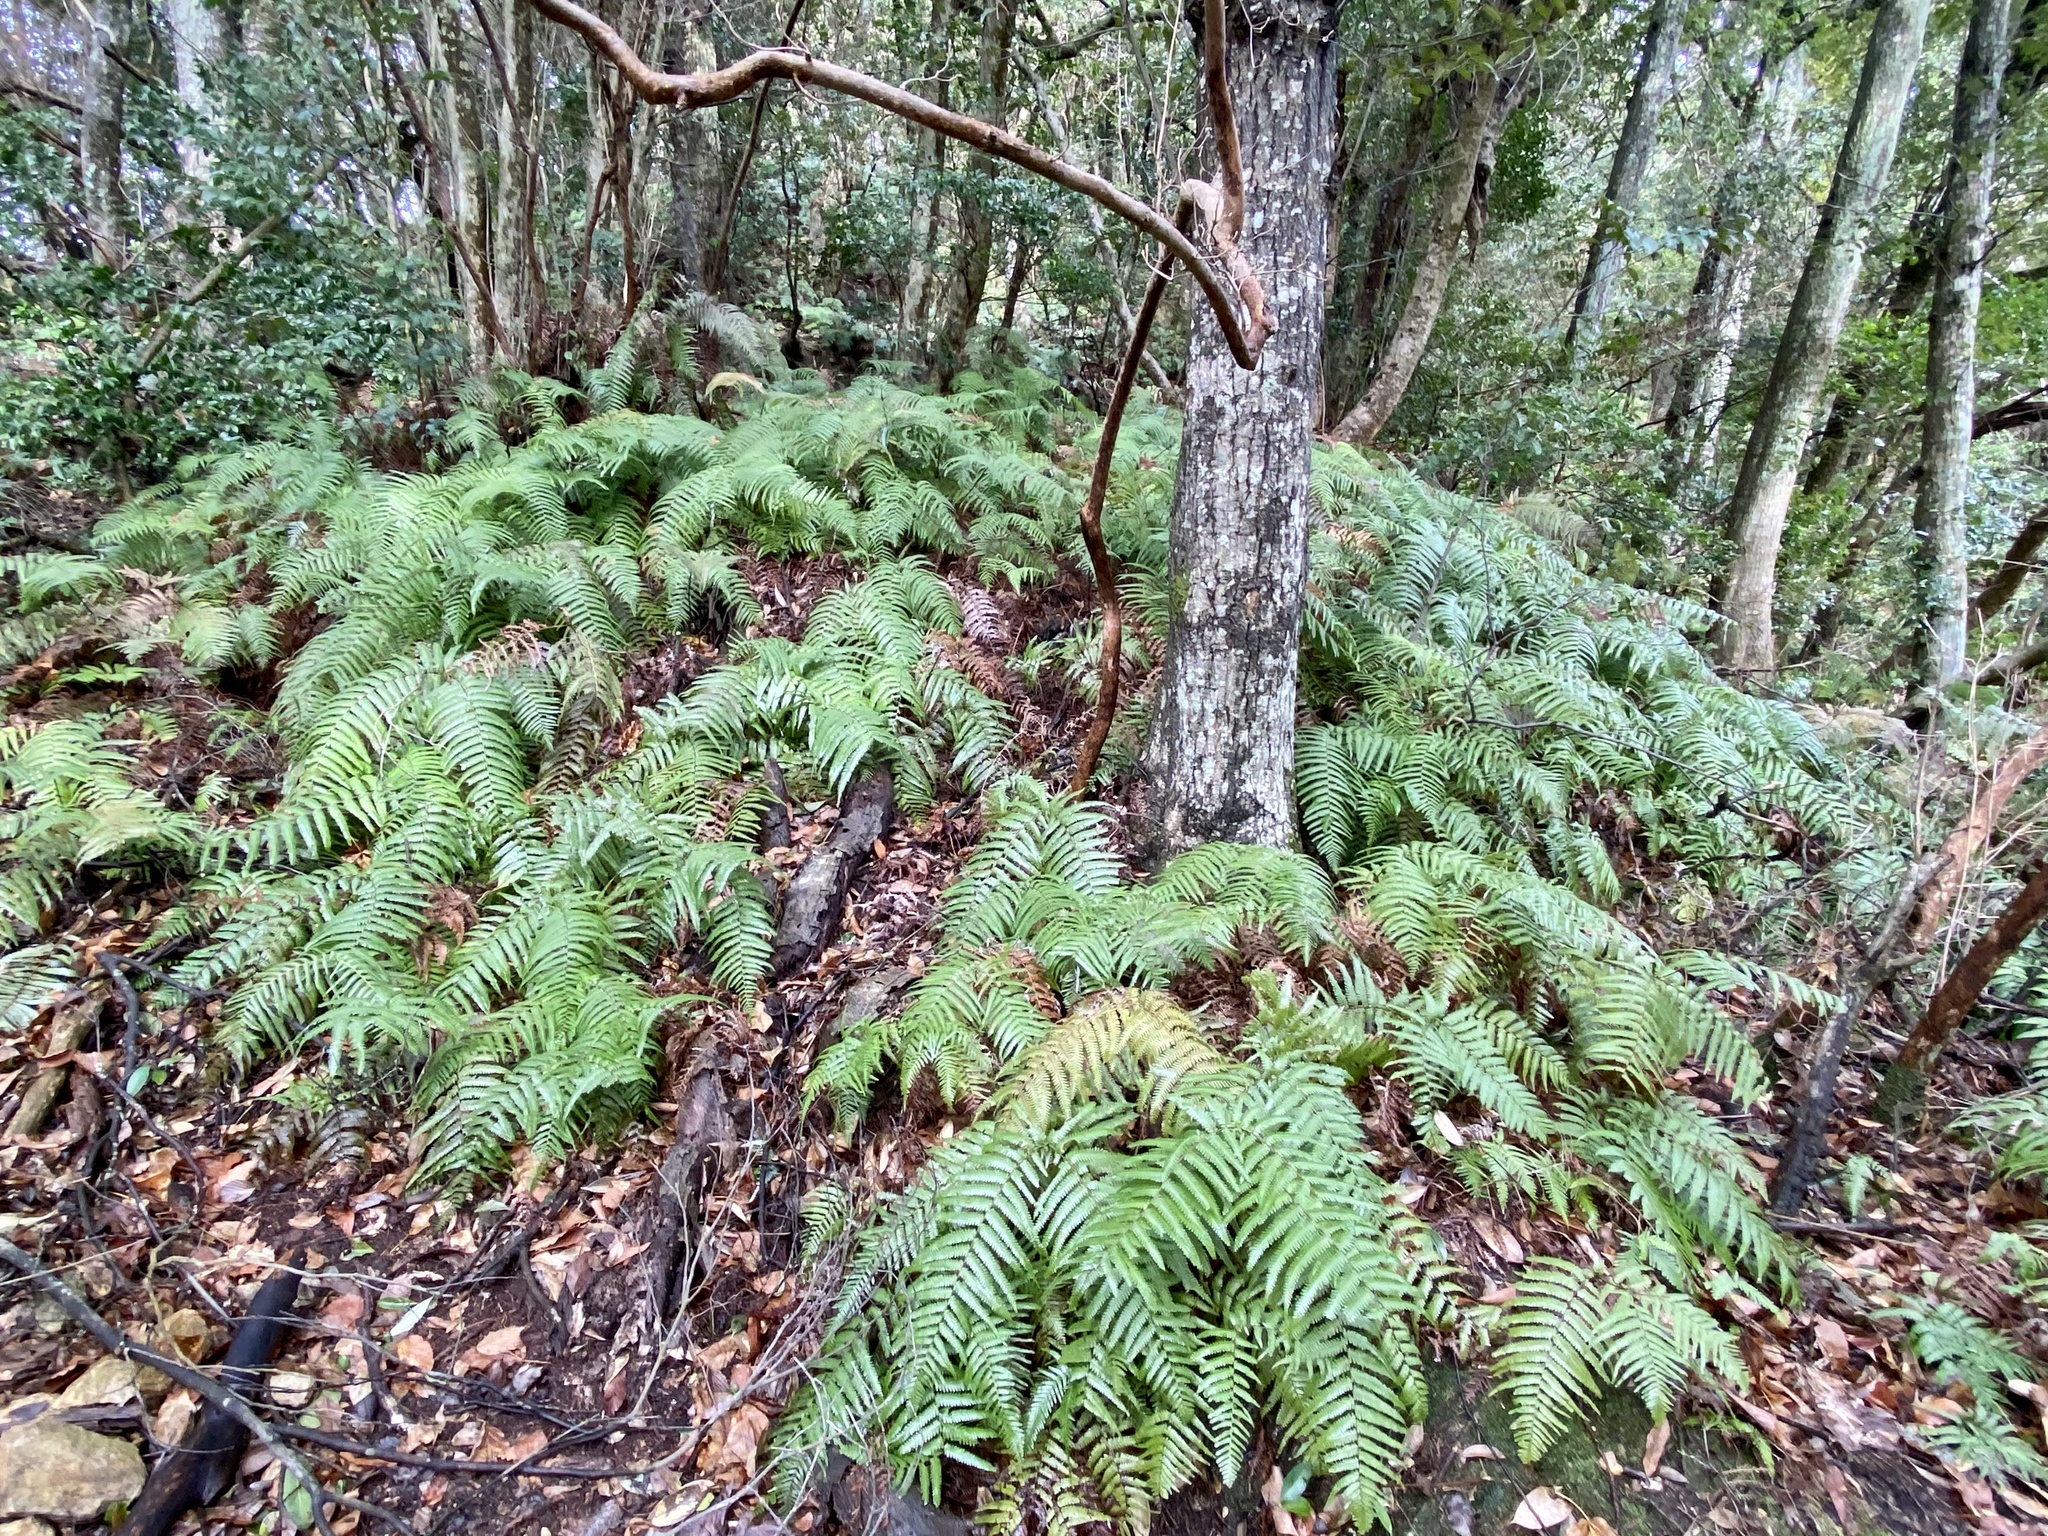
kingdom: Plantae
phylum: Tracheophyta
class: Polypodiopsida
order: Gleicheniales
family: Gleicheniaceae
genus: Diplopterygium
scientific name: Diplopterygium glaucum
